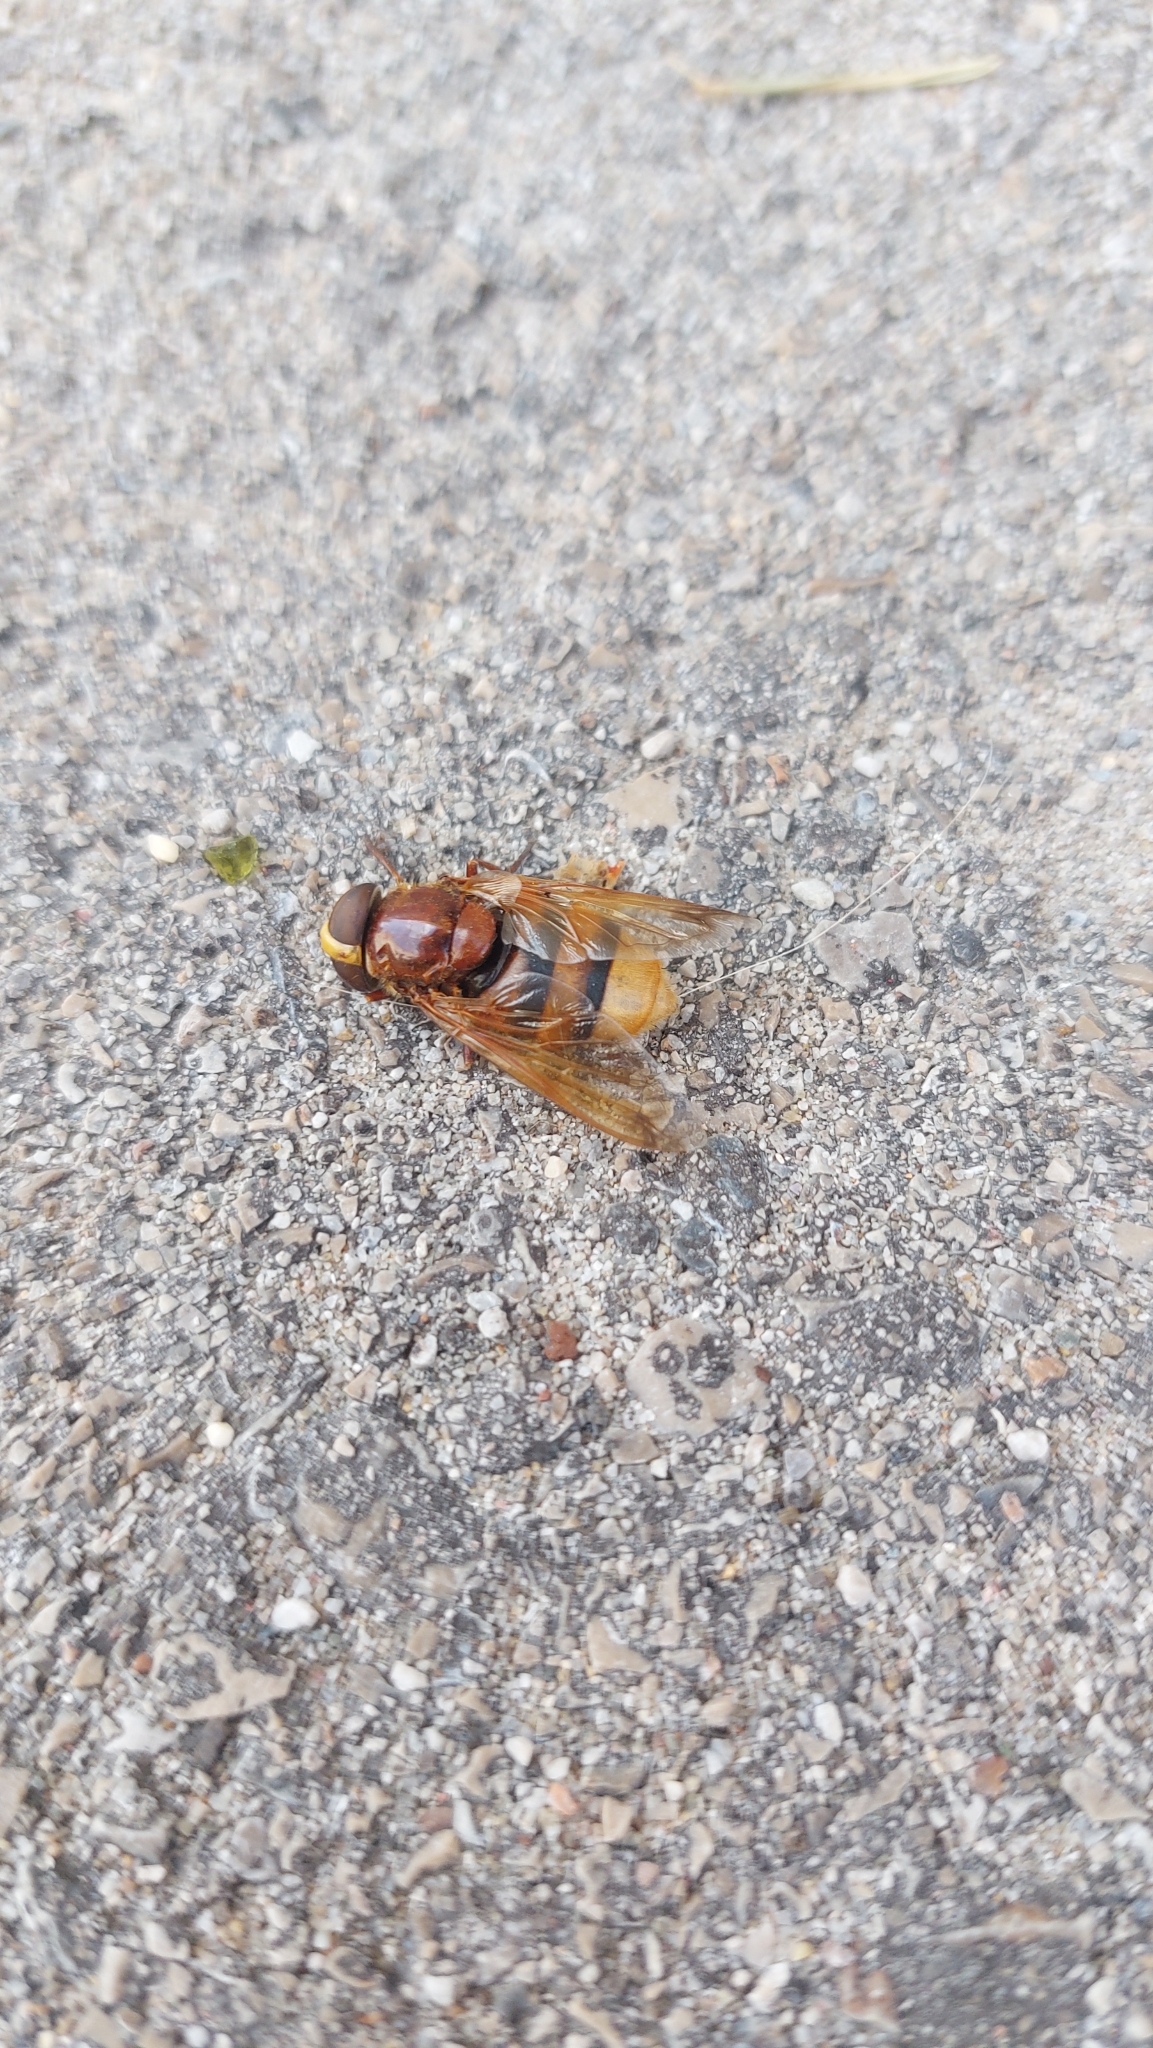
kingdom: Animalia
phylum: Arthropoda
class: Insecta
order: Diptera
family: Syrphidae
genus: Volucella
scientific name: Volucella zonaria
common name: Hornet hoverfly
